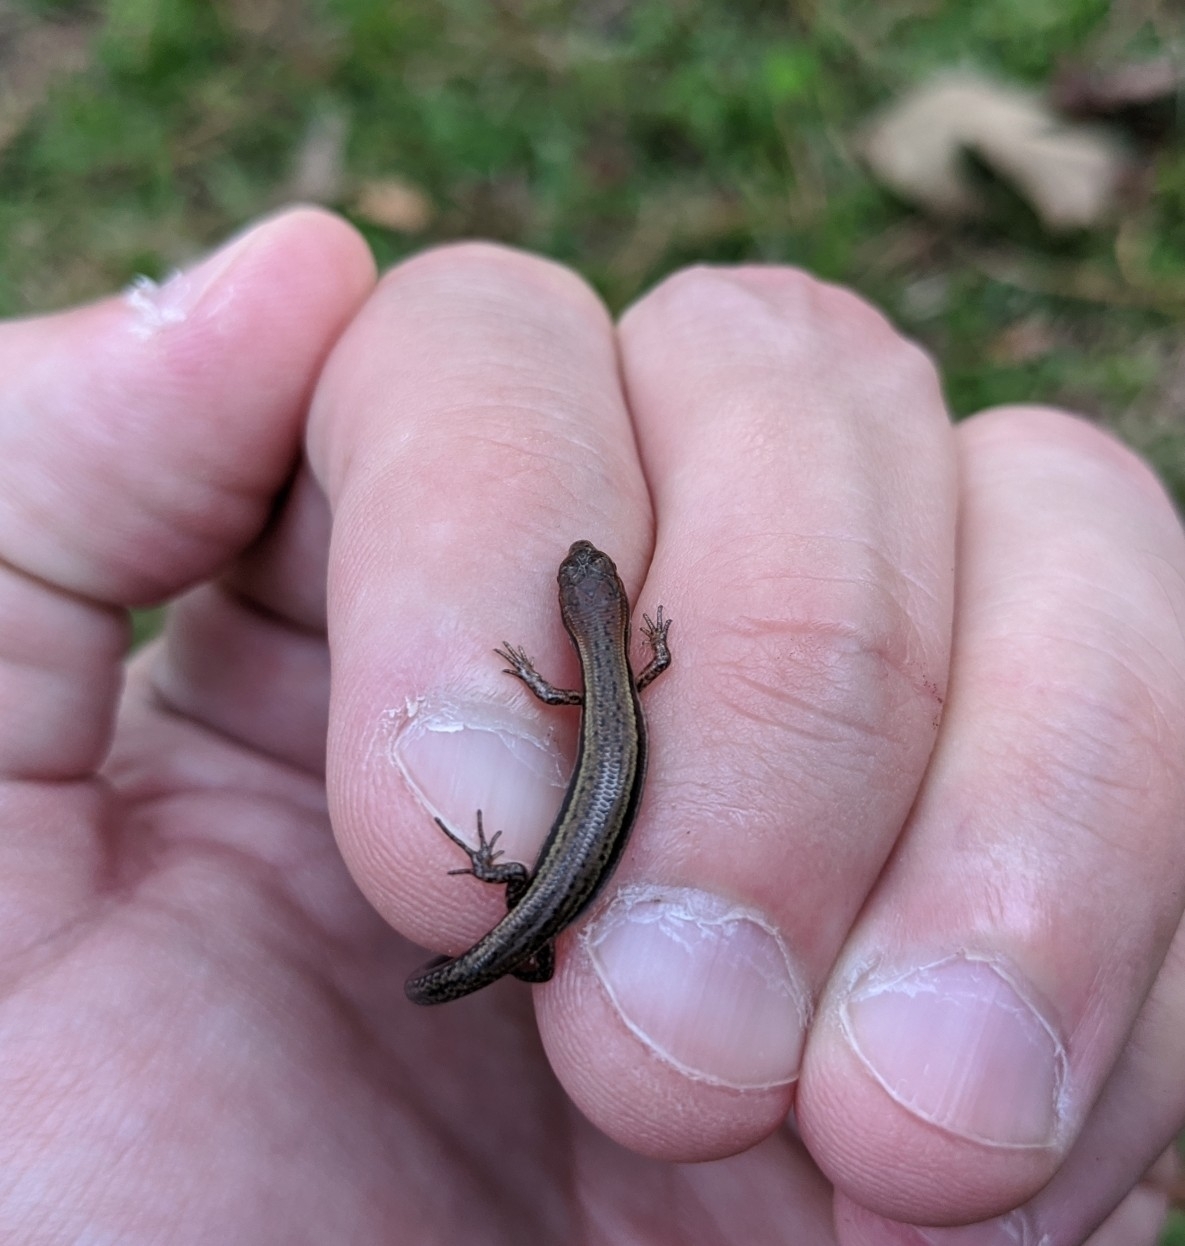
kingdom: Animalia
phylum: Chordata
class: Squamata
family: Scincidae
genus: Scincella
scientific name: Scincella lateralis
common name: Ground skink
